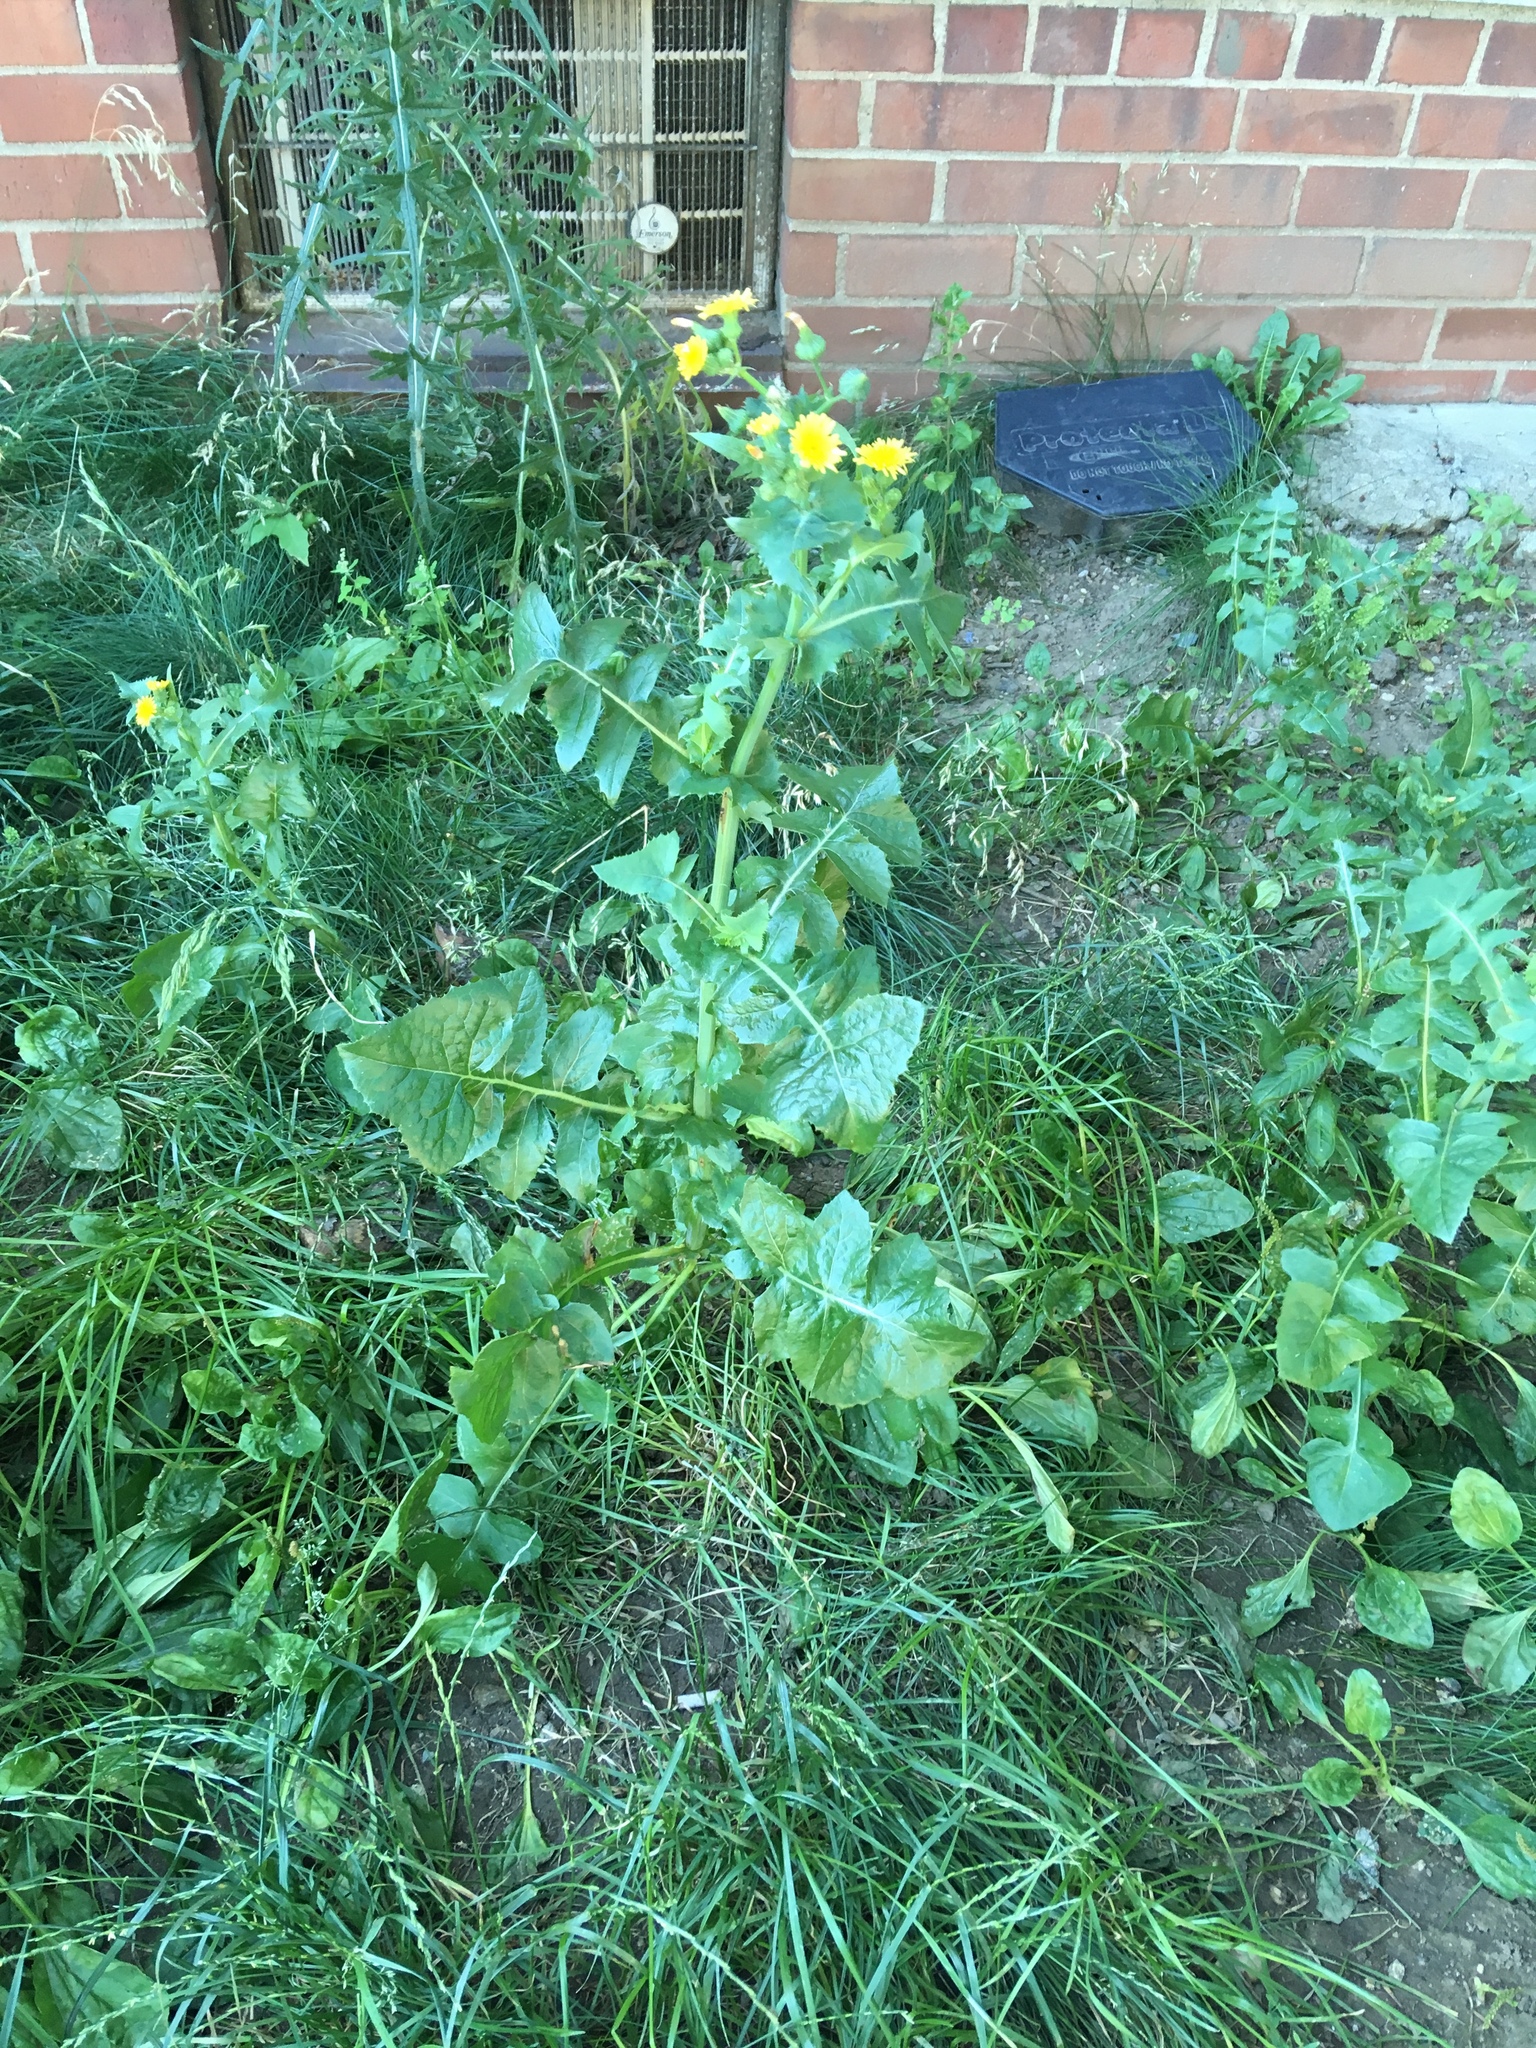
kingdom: Plantae
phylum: Tracheophyta
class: Magnoliopsida
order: Asterales
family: Asteraceae
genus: Sonchus
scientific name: Sonchus oleraceus
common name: Common sowthistle
